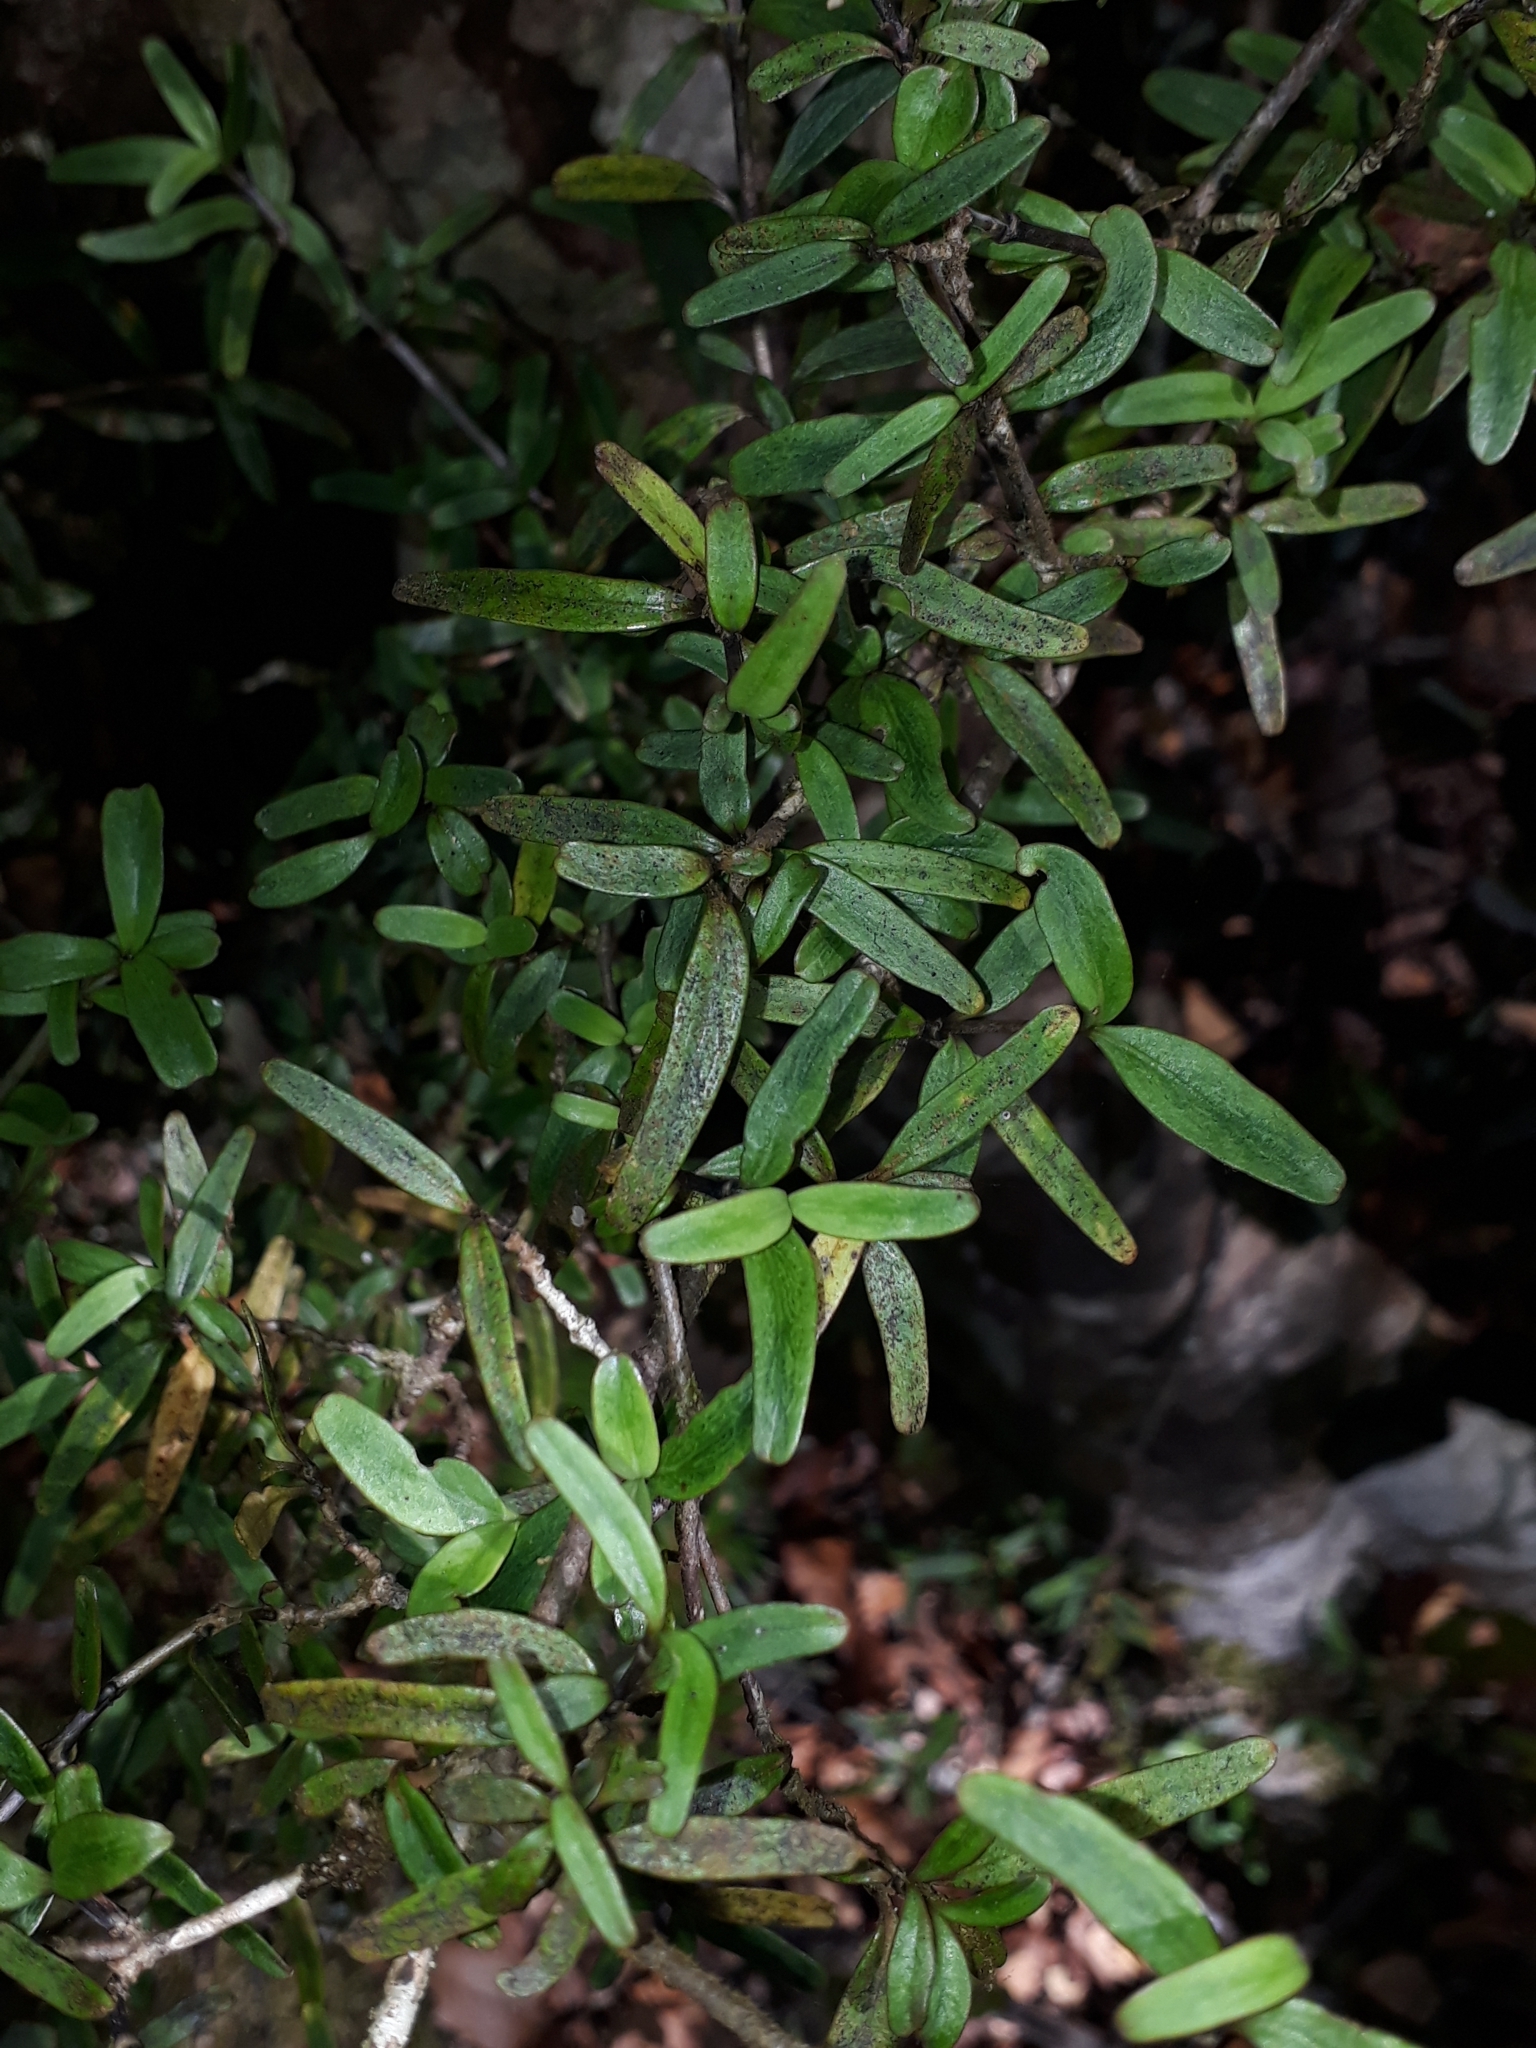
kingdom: Plantae
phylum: Tracheophyta
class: Magnoliopsida
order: Gentianales
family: Rubiaceae
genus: Coprosma
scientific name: Coprosma colensoi
